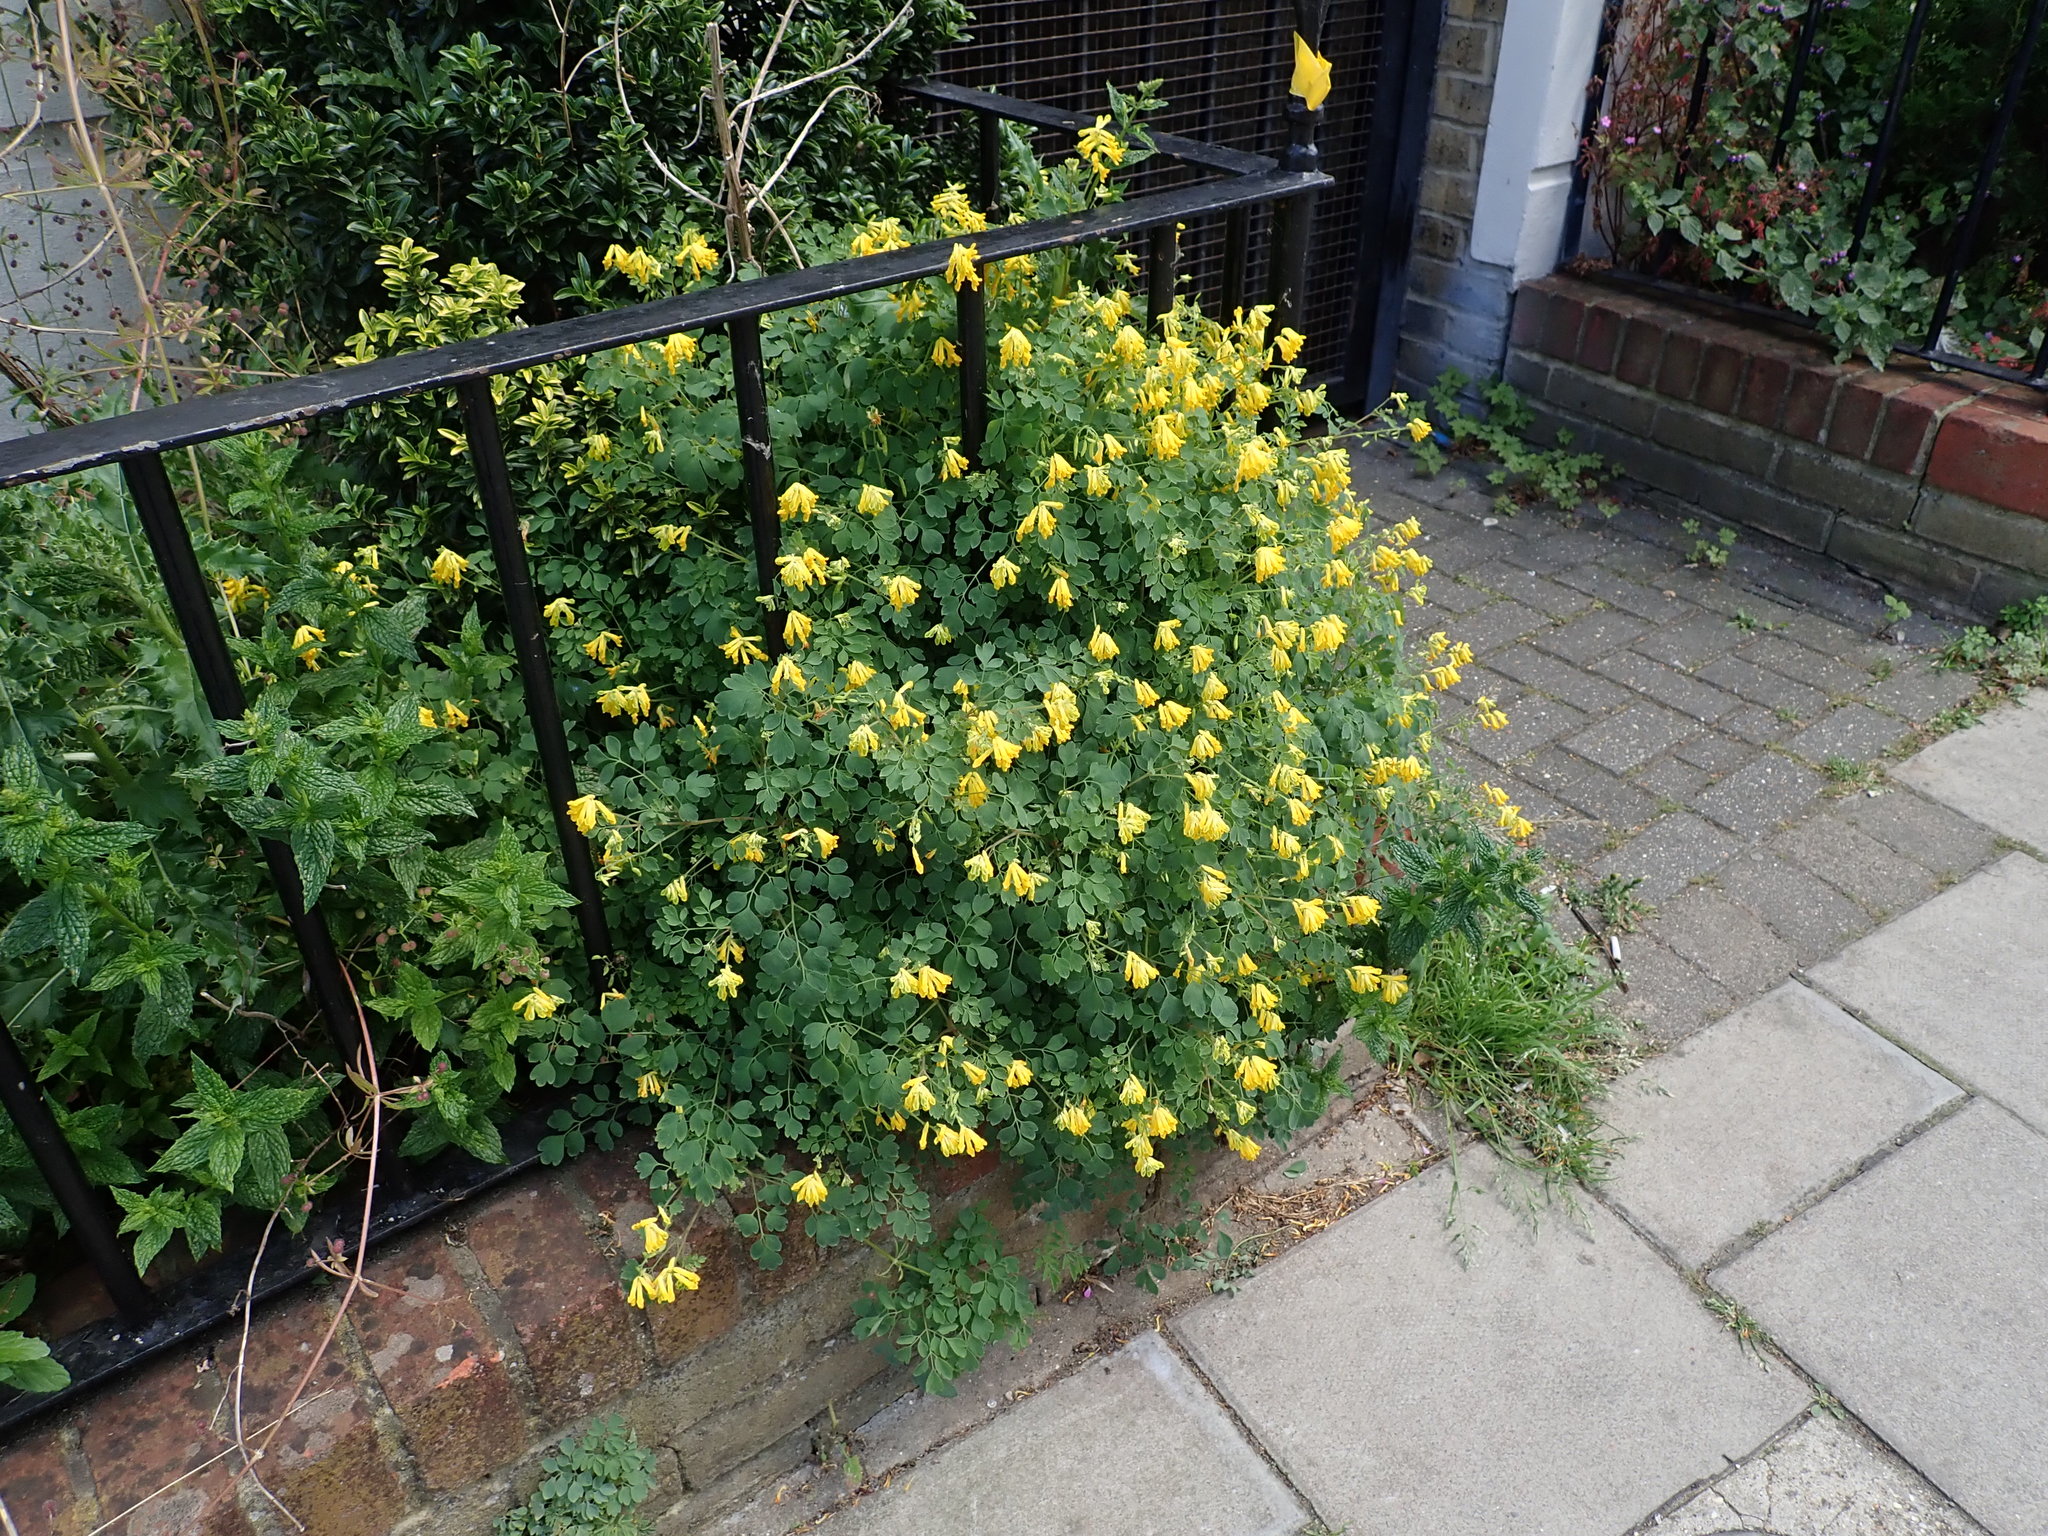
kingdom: Plantae
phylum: Tracheophyta
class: Magnoliopsida
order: Ranunculales
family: Papaveraceae
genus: Pseudofumaria
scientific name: Pseudofumaria lutea
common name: Yellow corydalis
